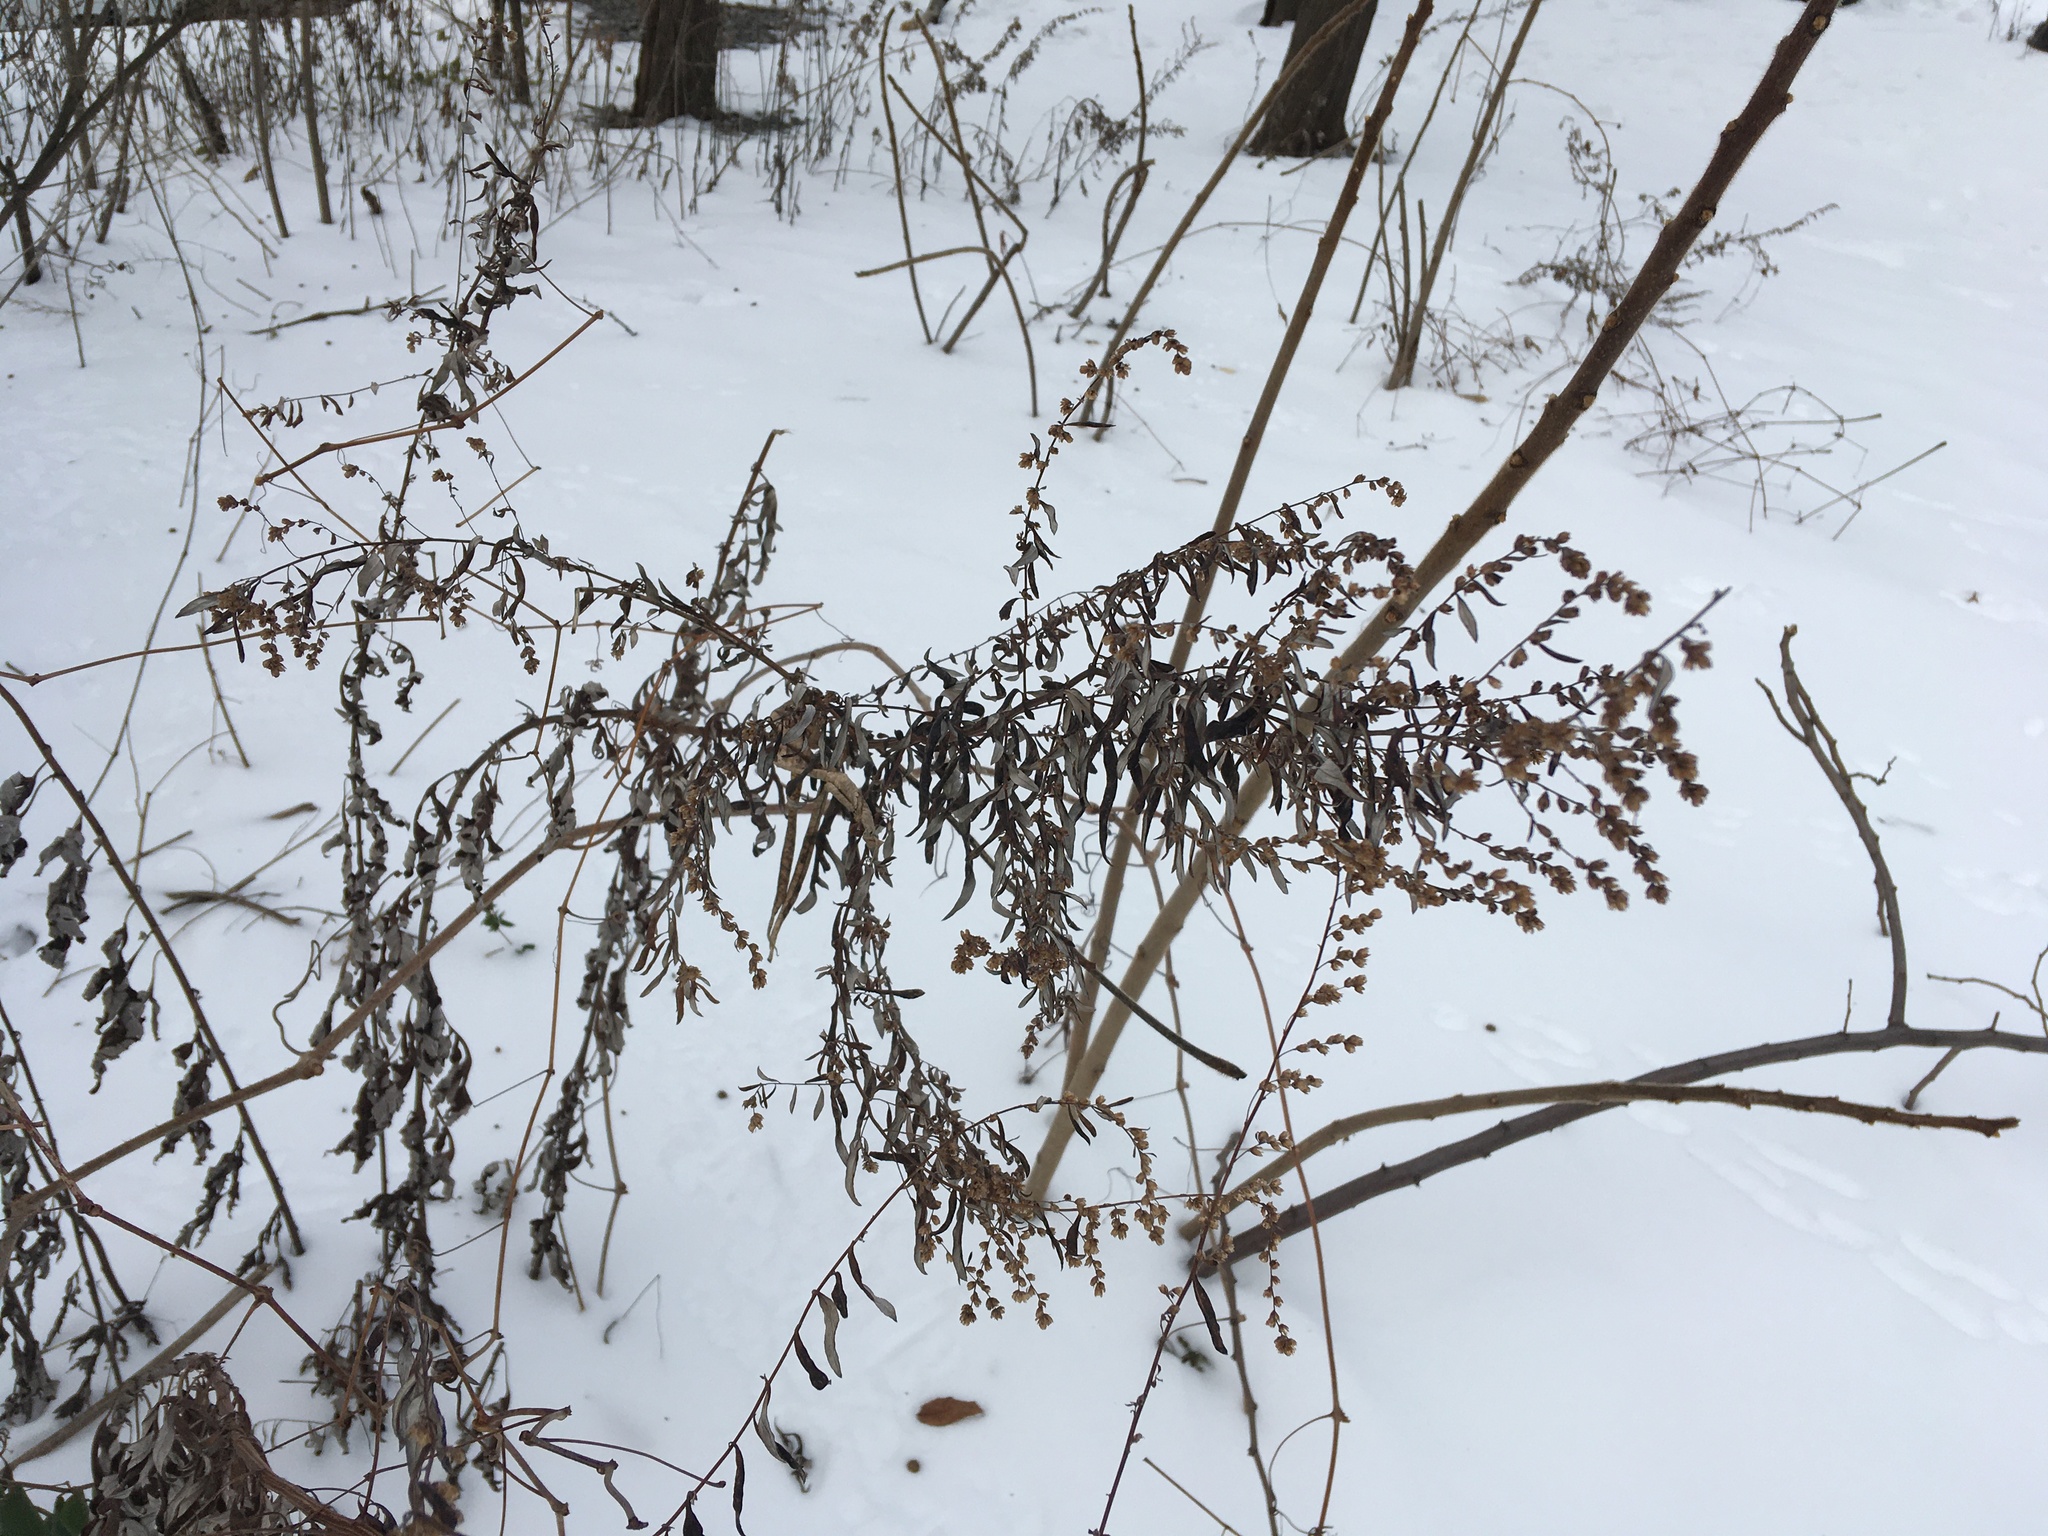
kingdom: Plantae
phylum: Tracheophyta
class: Magnoliopsida
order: Asterales
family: Asteraceae
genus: Artemisia
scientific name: Artemisia vulgaris
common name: Mugwort
